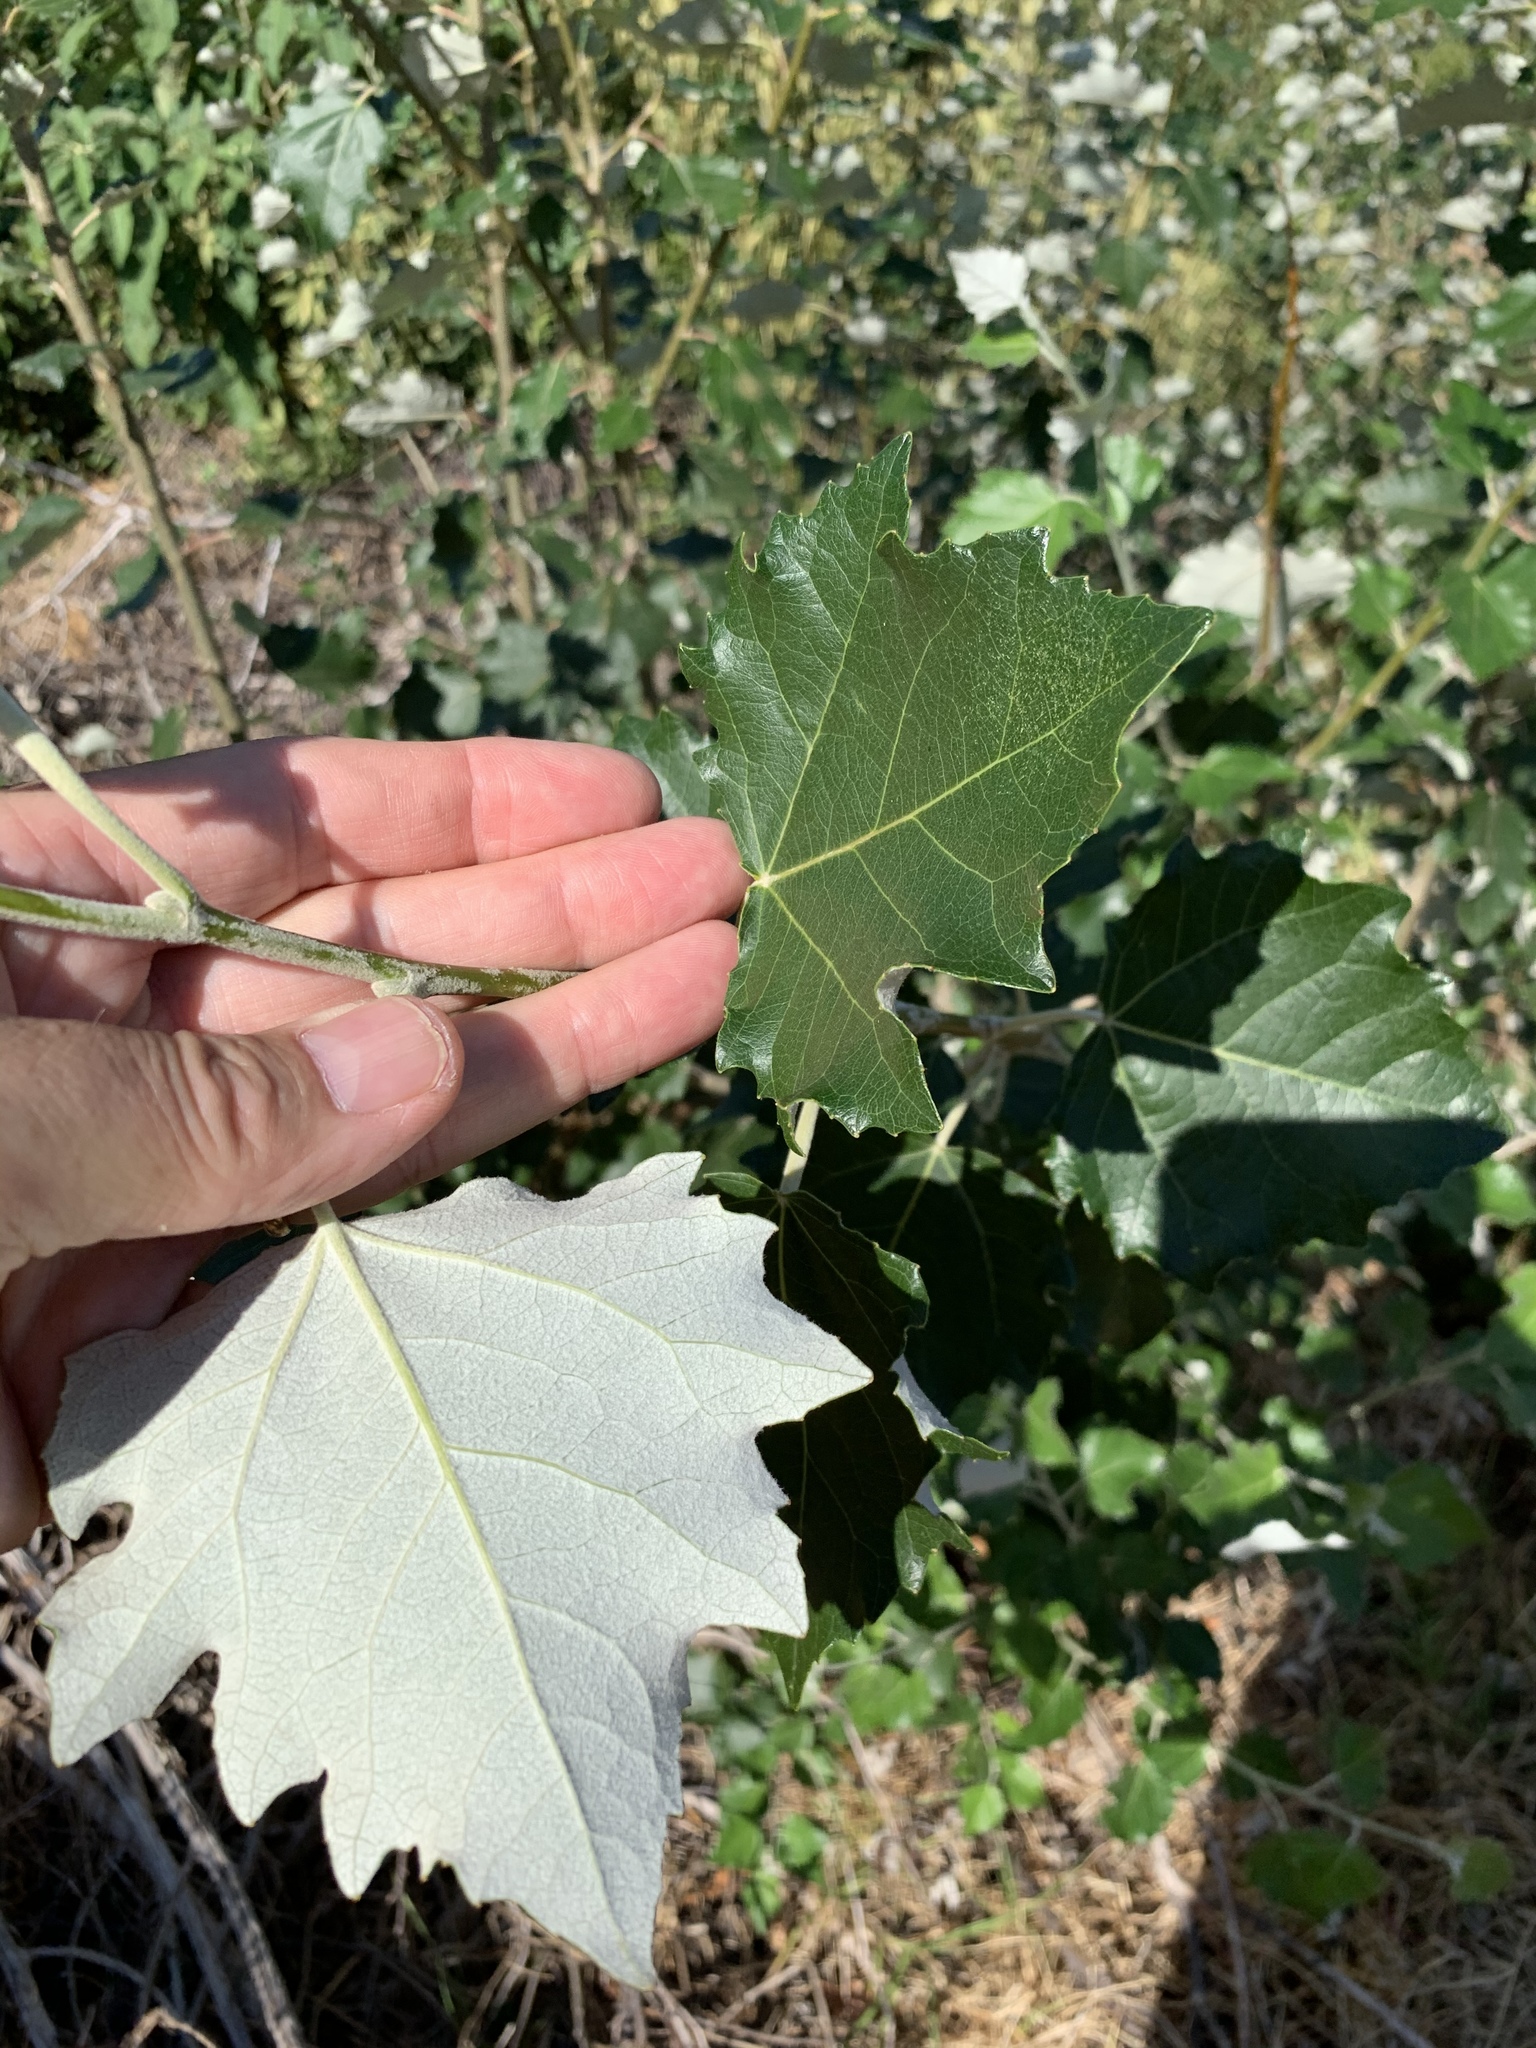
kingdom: Plantae
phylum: Tracheophyta
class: Magnoliopsida
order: Malpighiales
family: Salicaceae
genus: Populus
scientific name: Populus canescens
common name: Gray poplar
